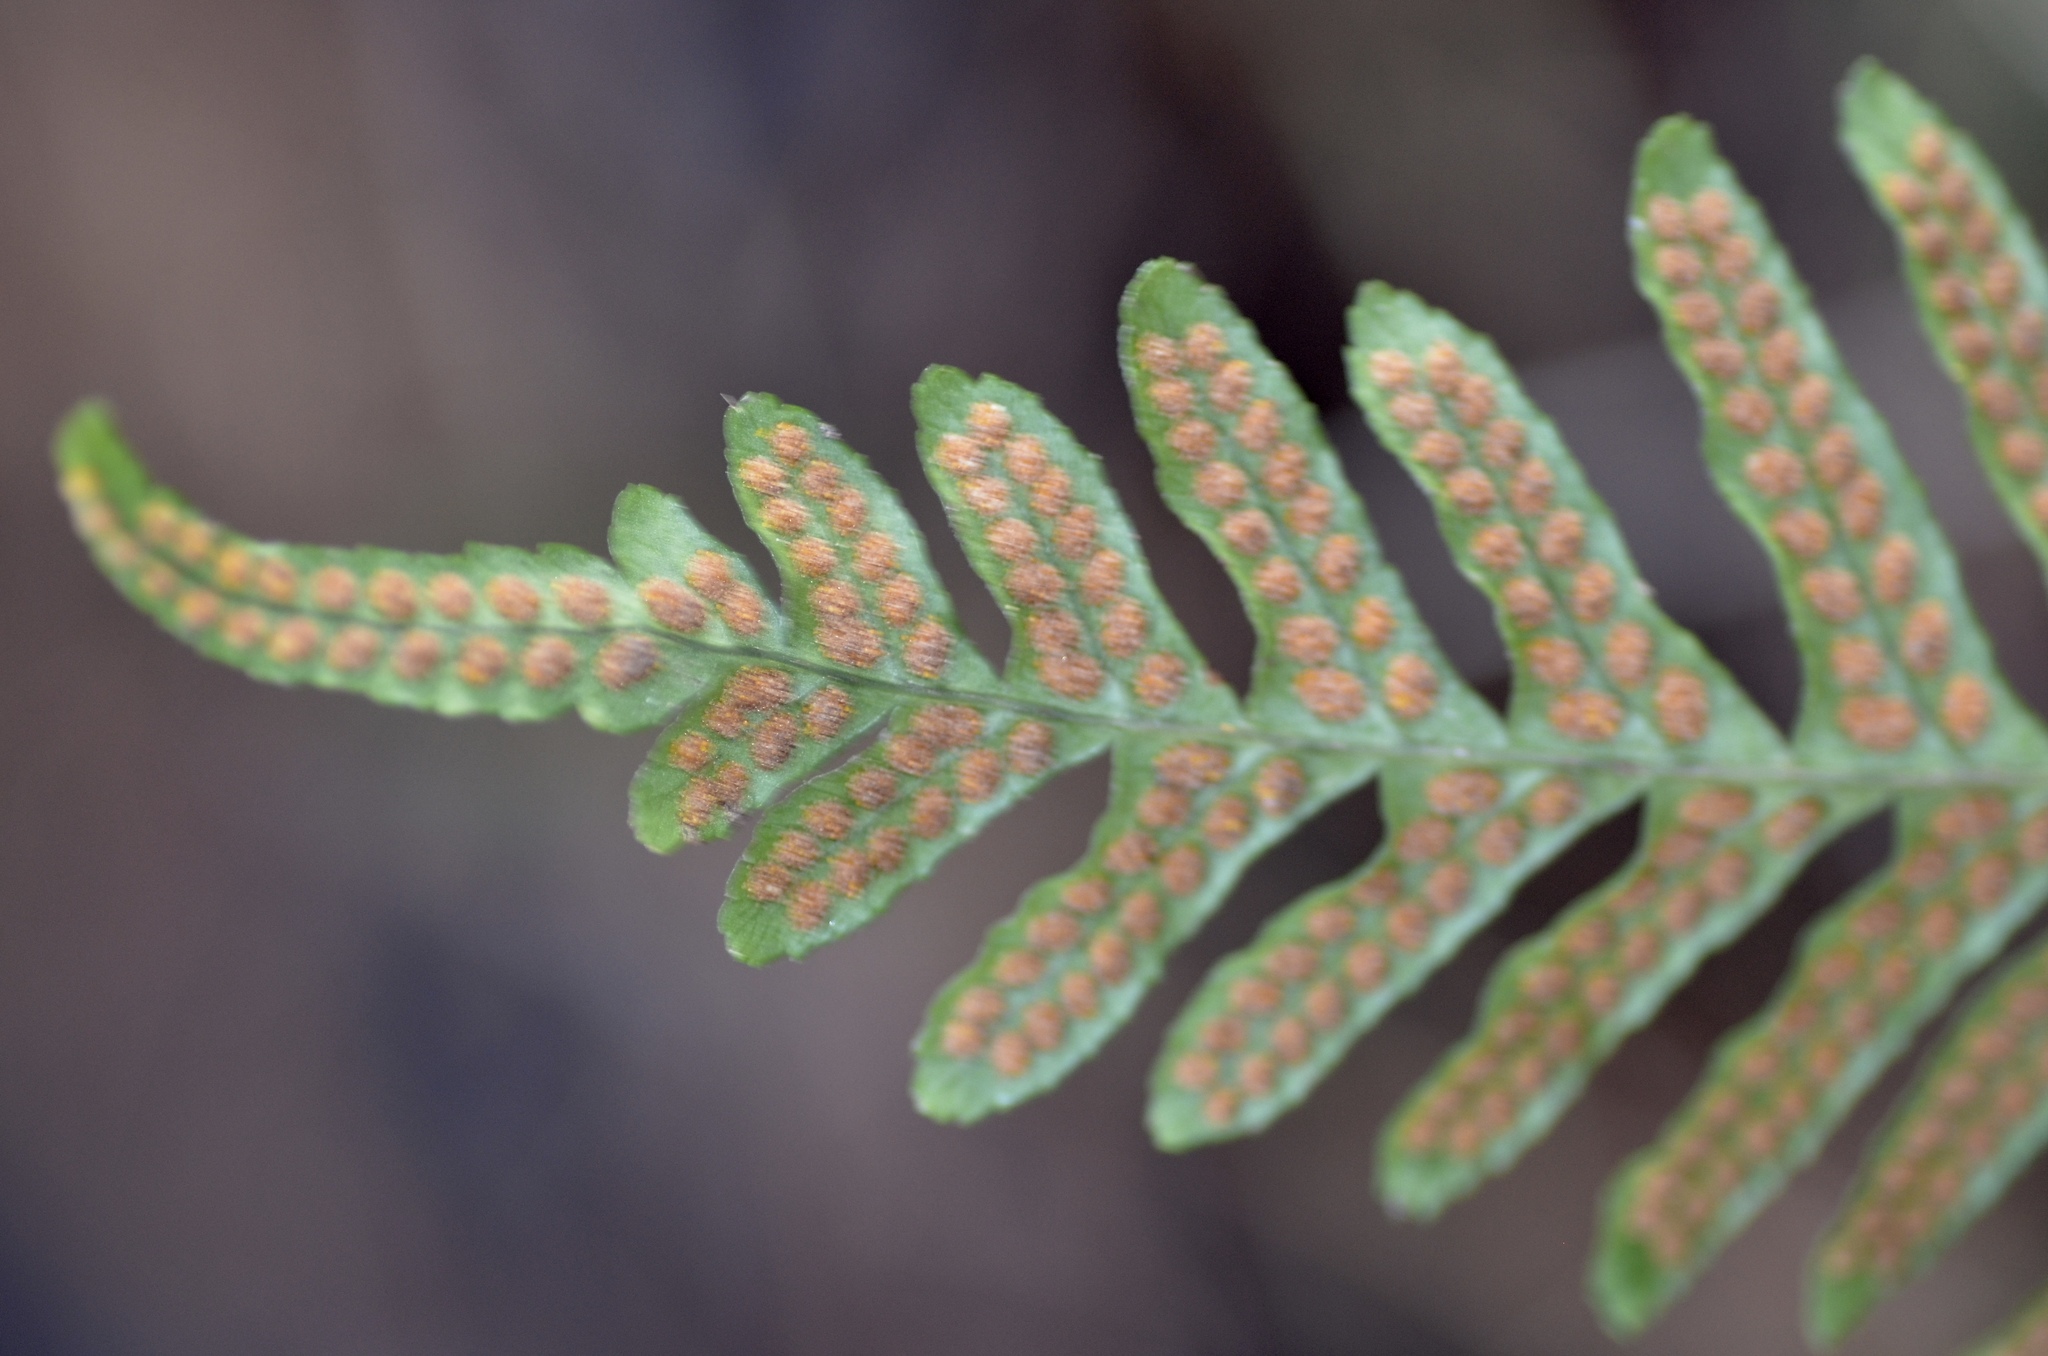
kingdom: Plantae
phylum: Tracheophyta
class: Polypodiopsida
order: Polypodiales
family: Polypodiaceae
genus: Polypodium
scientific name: Polypodium vulgare
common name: Common polypody
